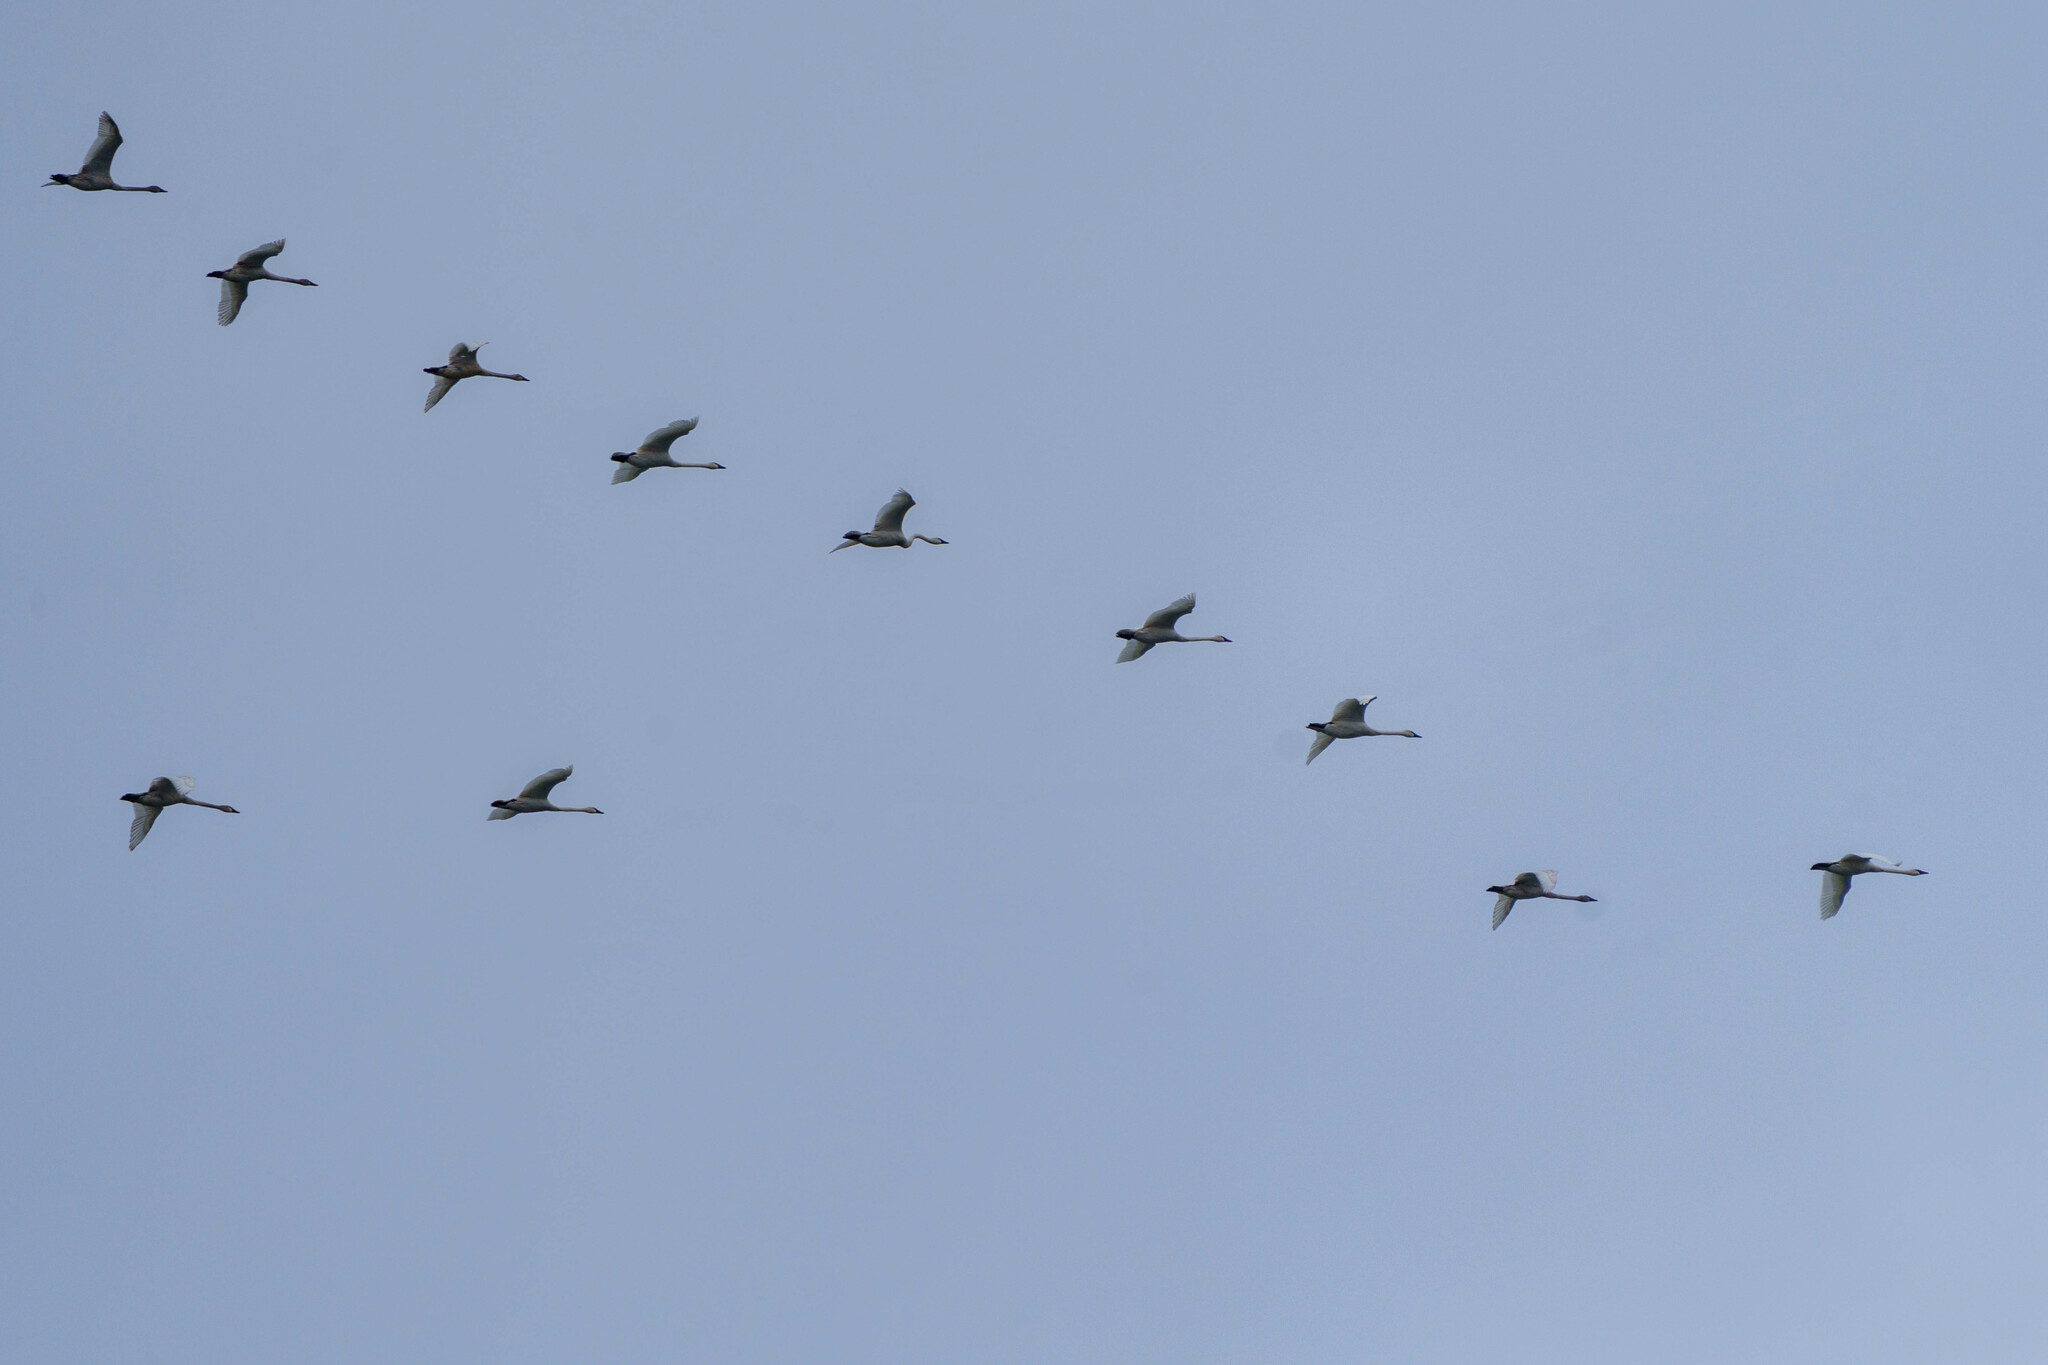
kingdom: Animalia
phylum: Chordata
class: Aves
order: Anseriformes
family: Anatidae
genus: Cygnus
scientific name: Cygnus buccinator
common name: Trumpeter swan
